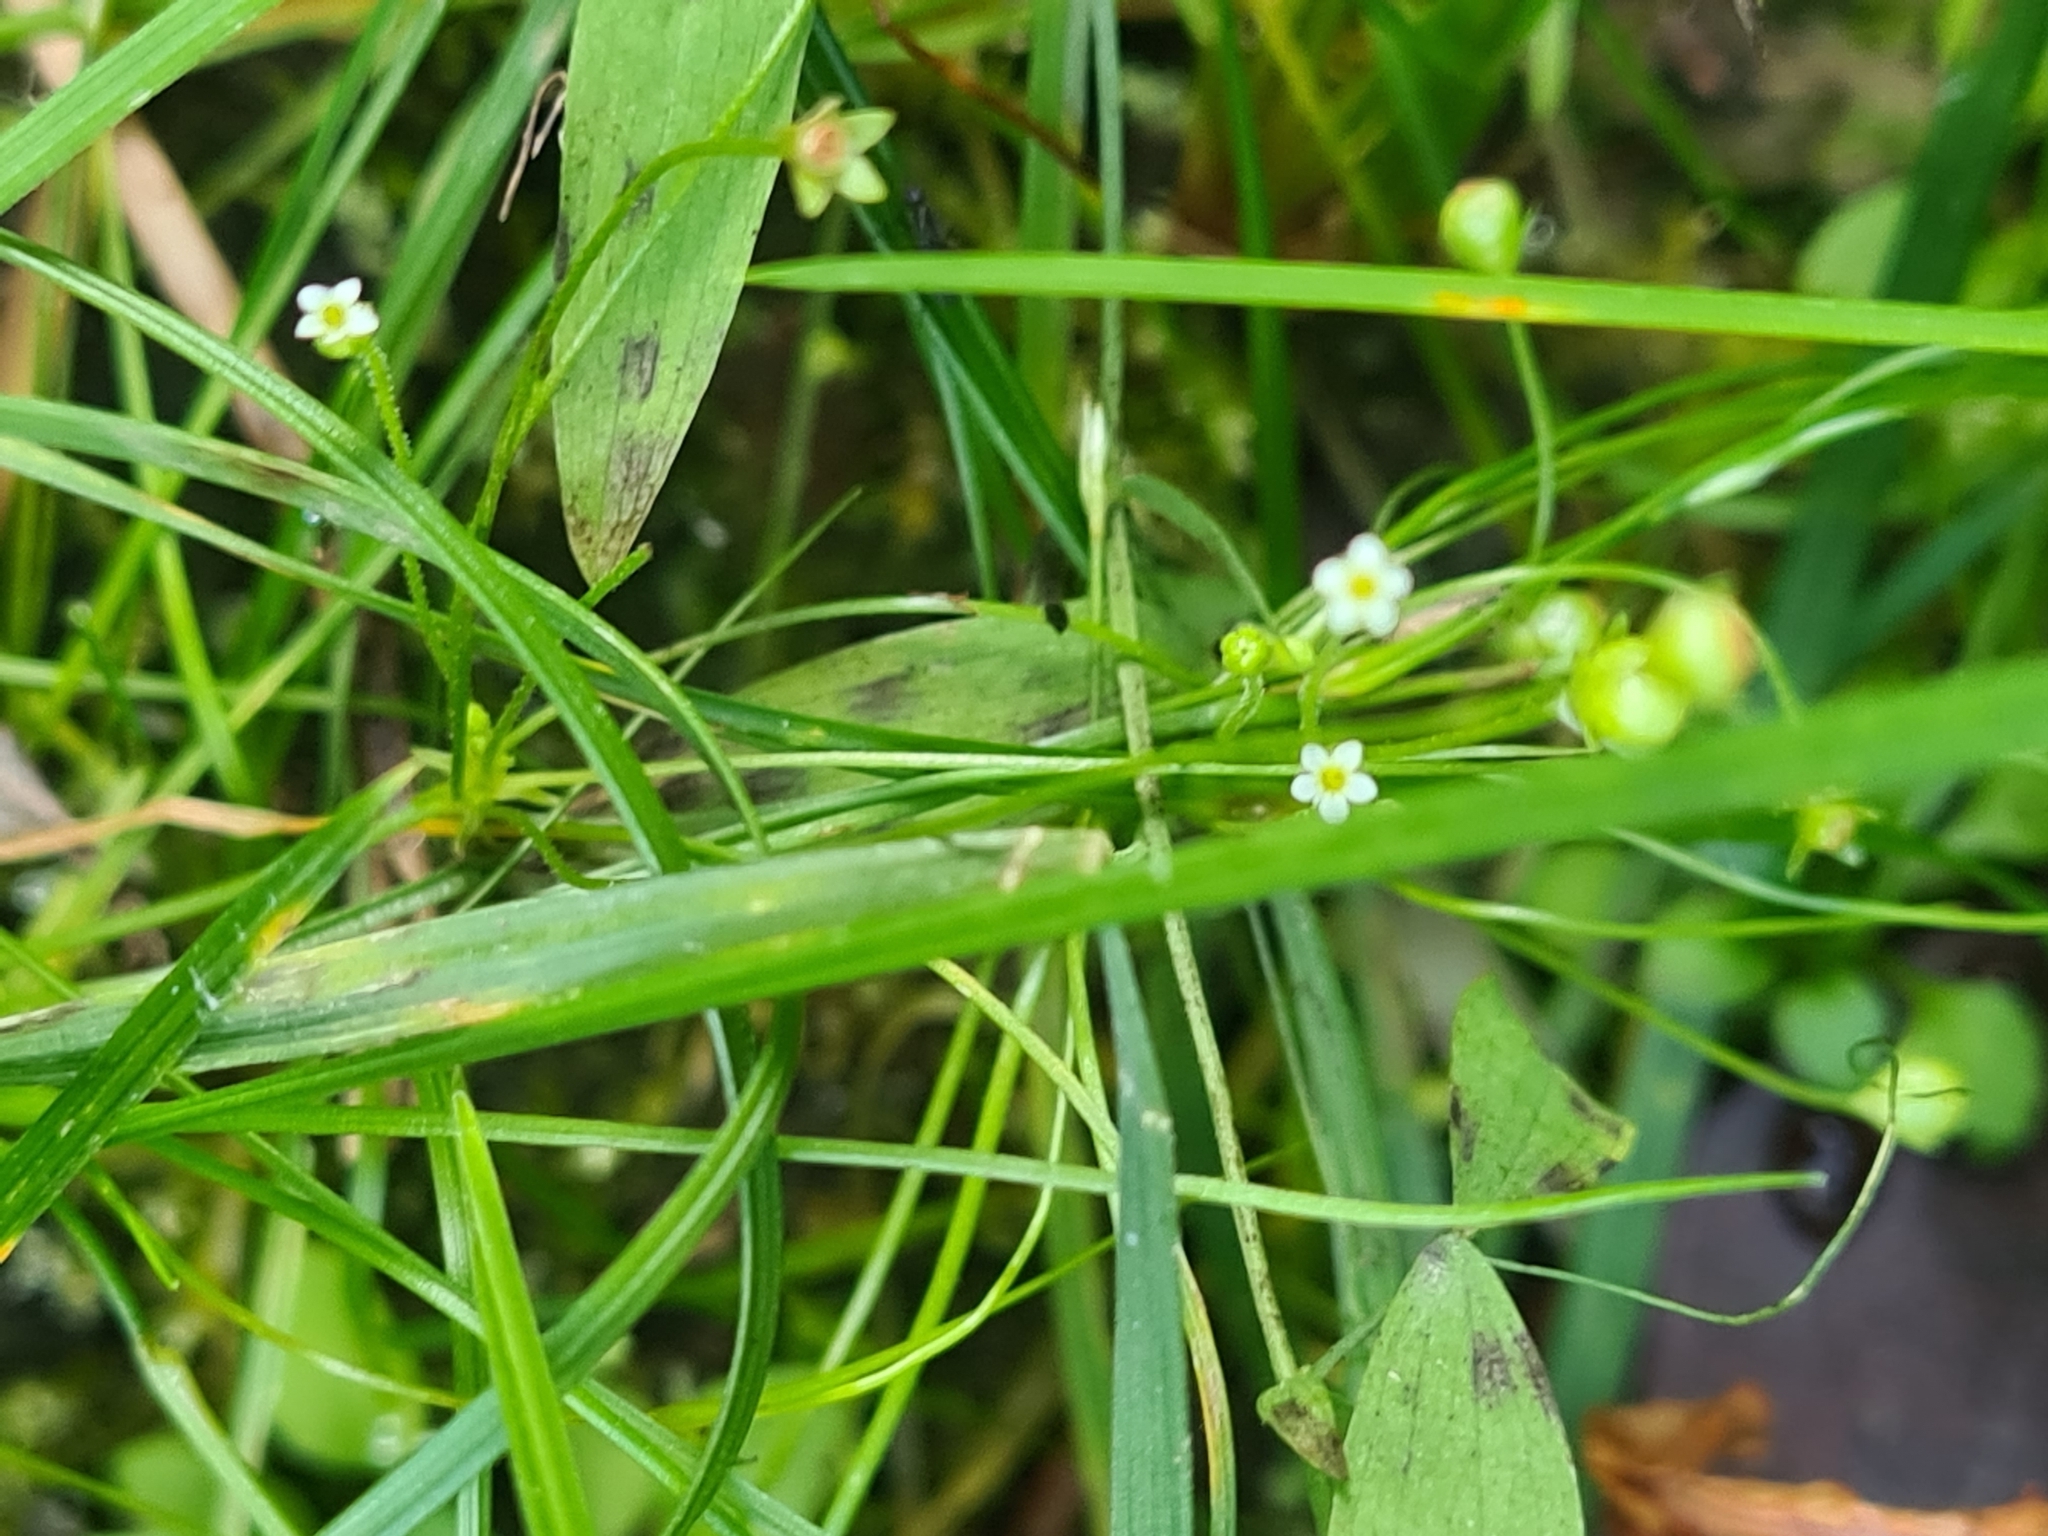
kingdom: Plantae
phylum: Tracheophyta
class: Magnoliopsida
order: Ericales
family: Primulaceae
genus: Androsace
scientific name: Androsace filiformis
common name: Filiform rock jasmine
